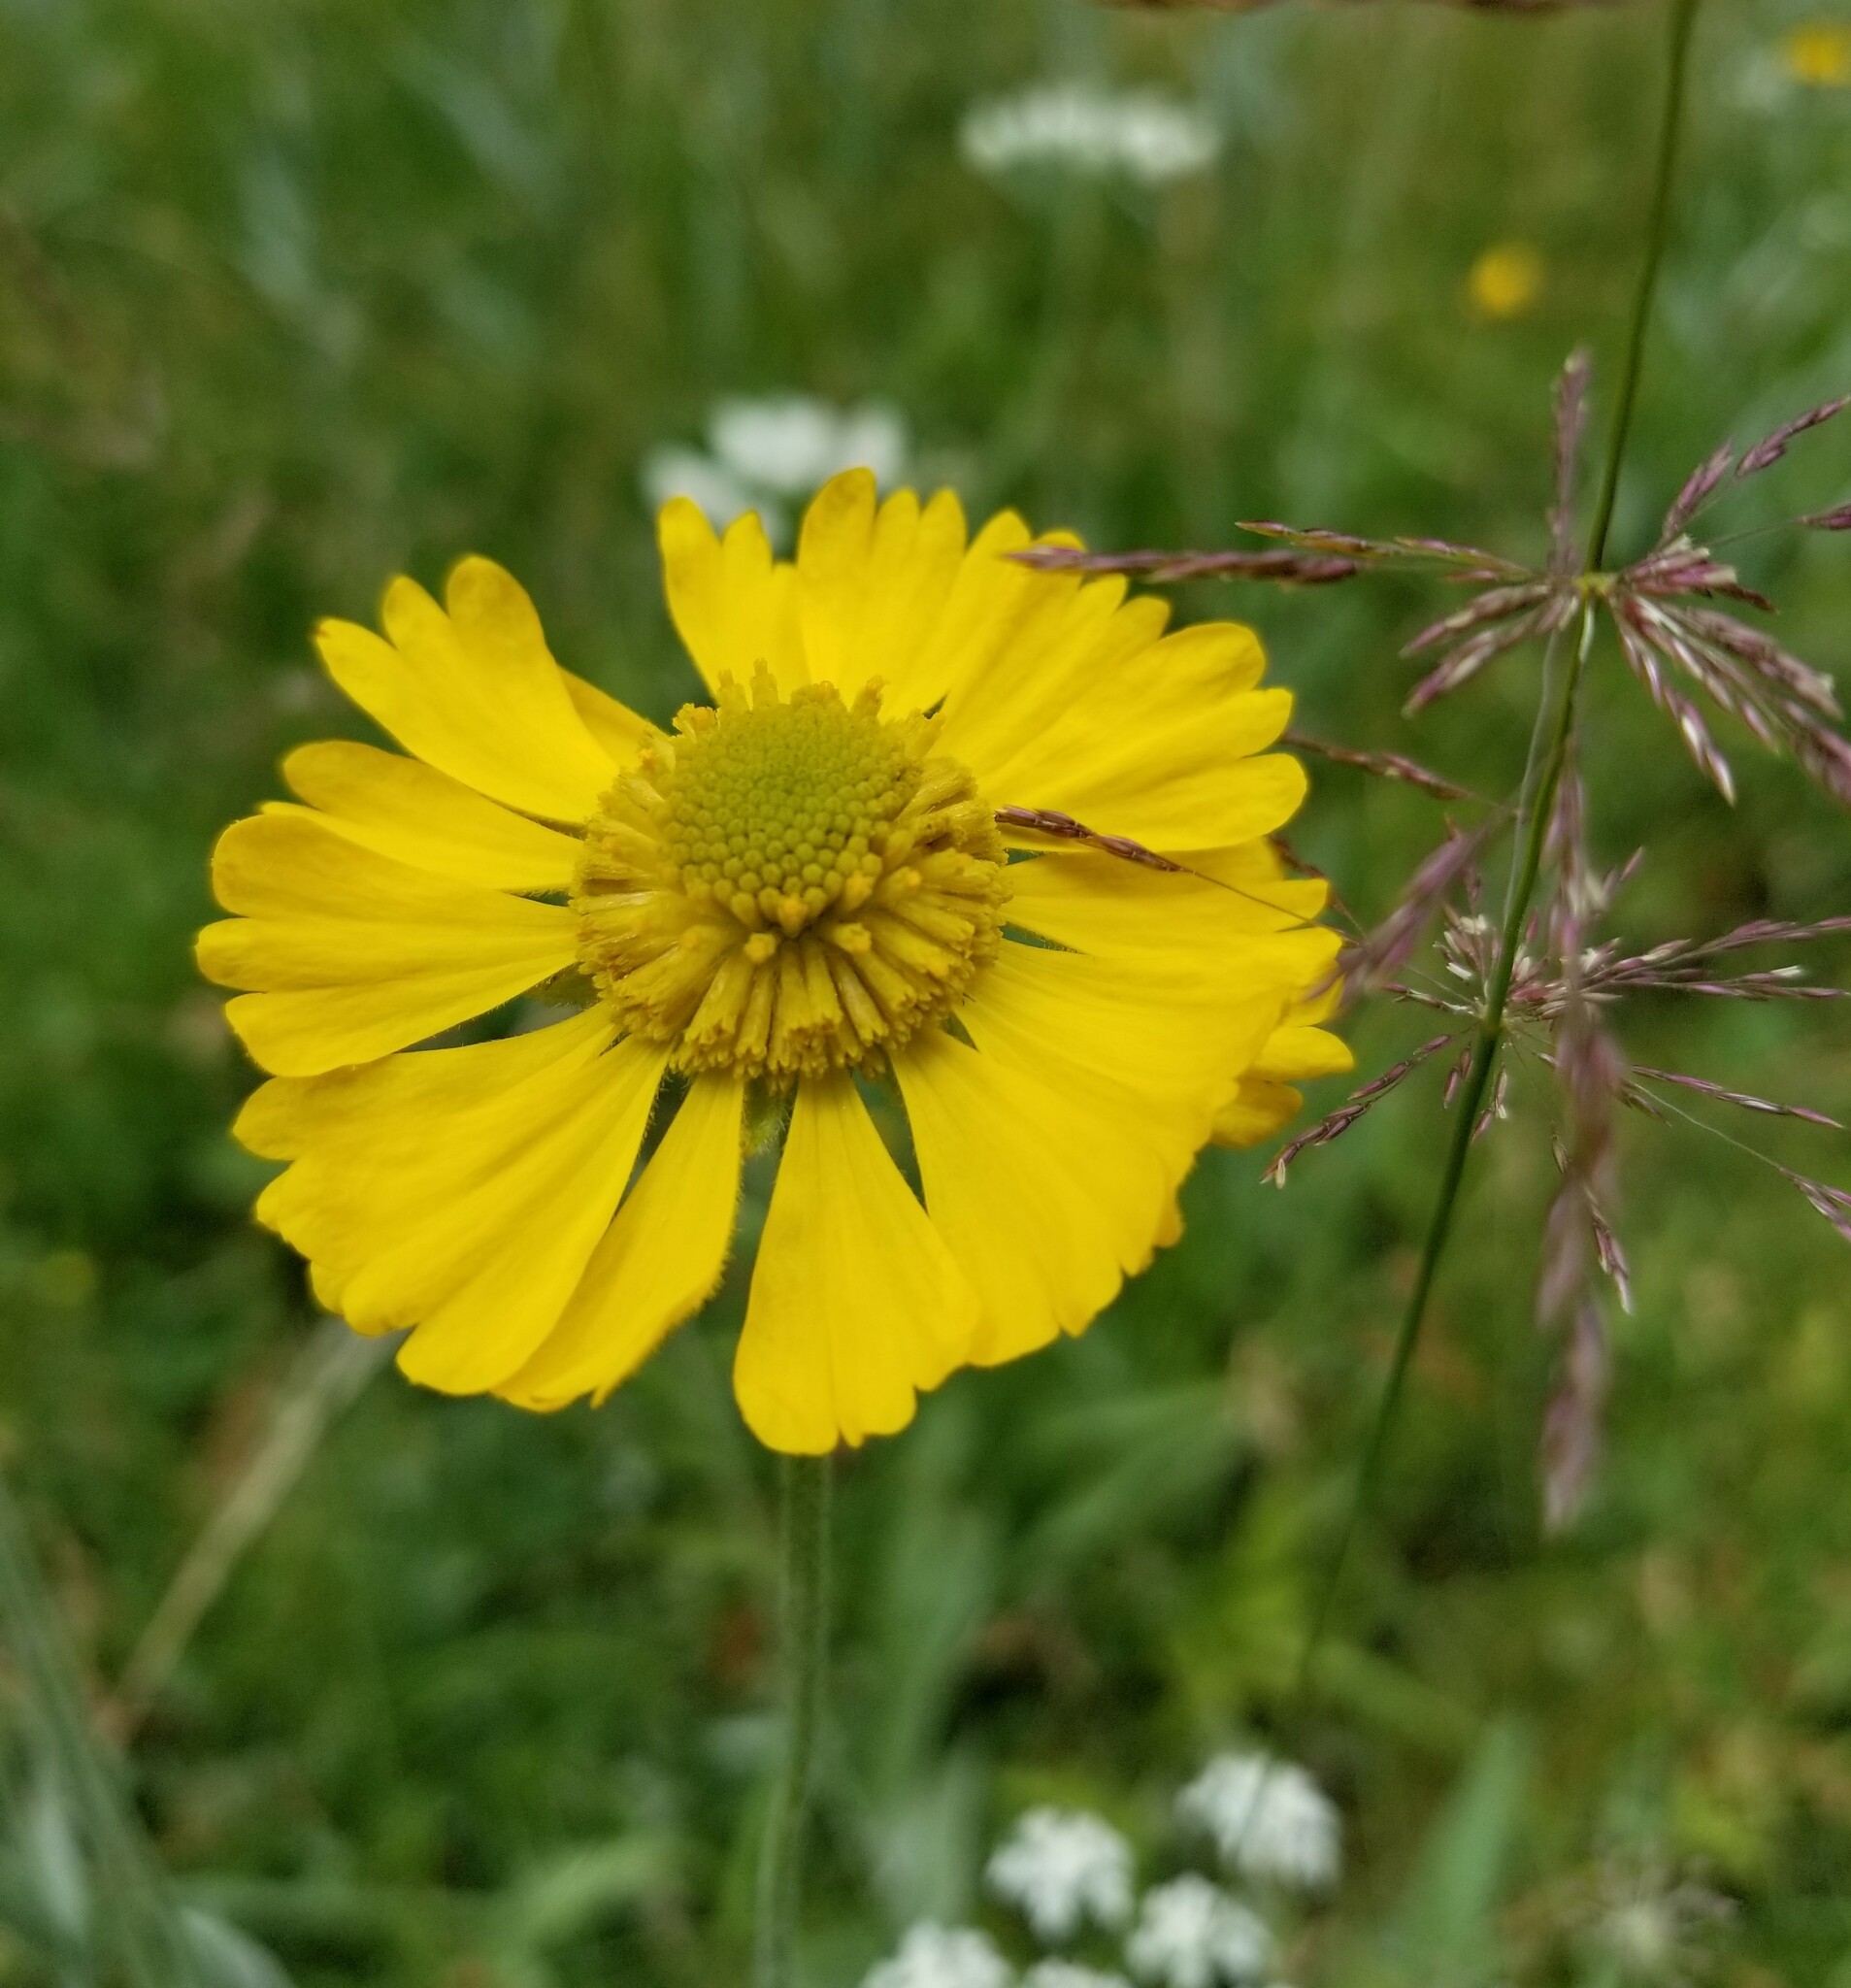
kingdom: Plantae
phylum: Tracheophyta
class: Magnoliopsida
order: Asterales
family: Asteraceae
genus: Helenium
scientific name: Helenium bigelovii
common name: Bigelow's sneezeweed
